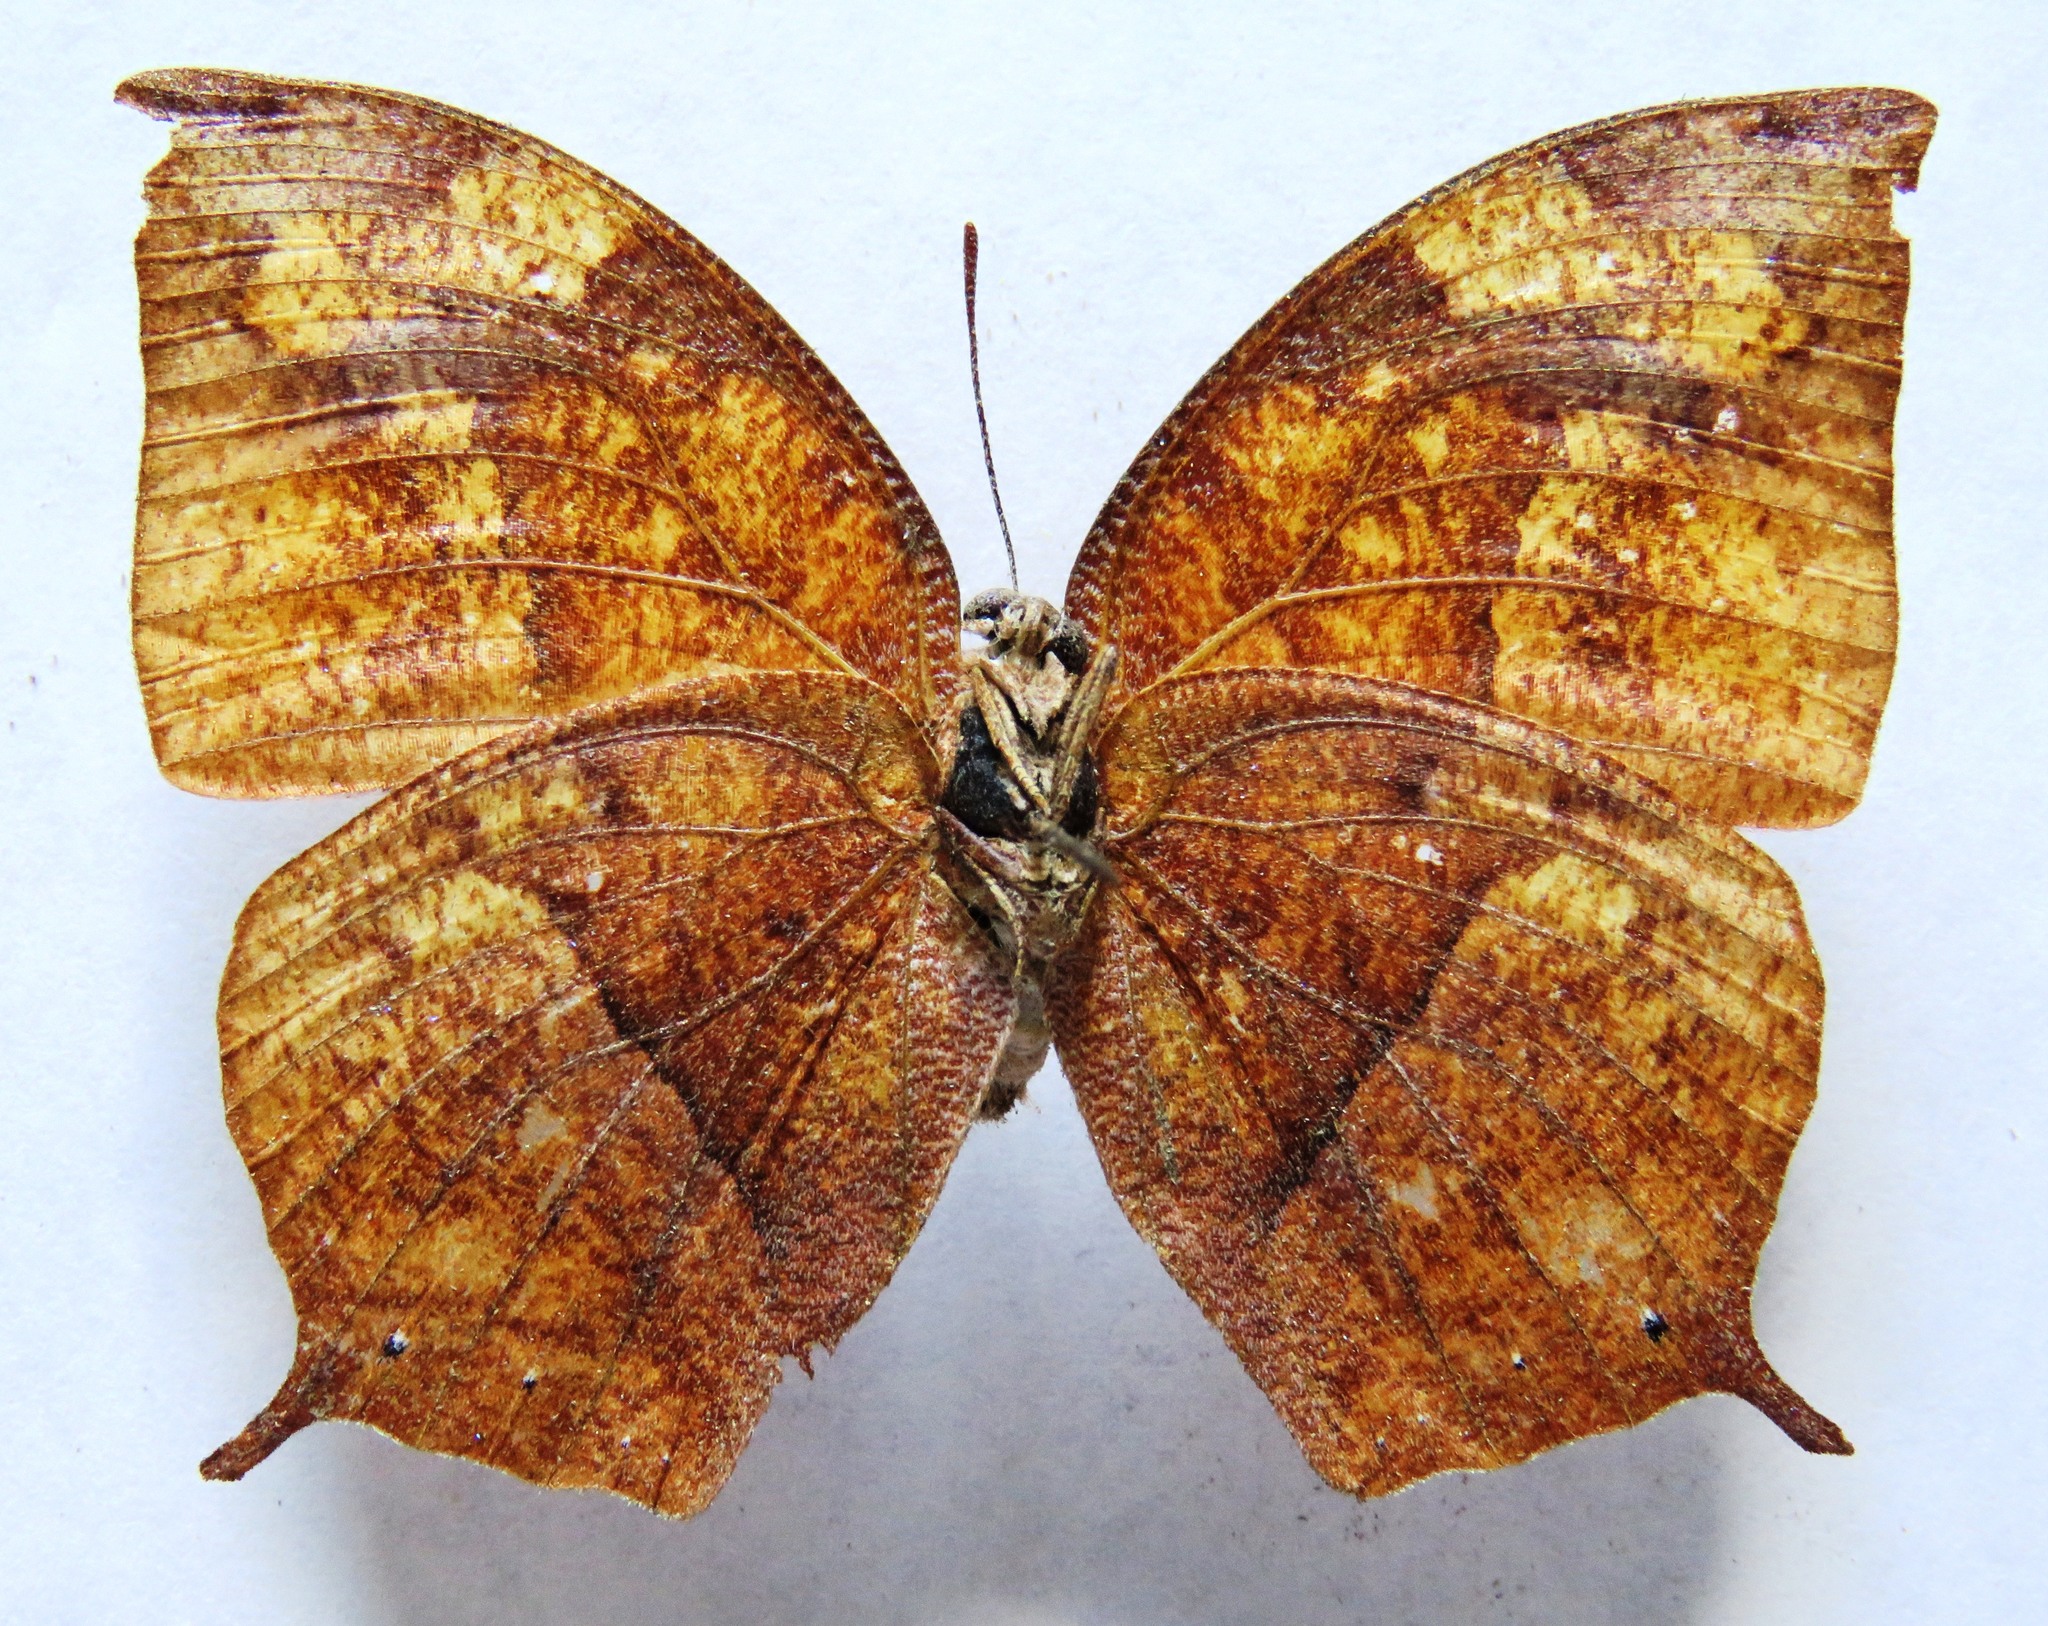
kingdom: Animalia
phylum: Arthropoda
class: Insecta
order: Lepidoptera
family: Nymphalidae
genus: Fountainea
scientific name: Fountainea
